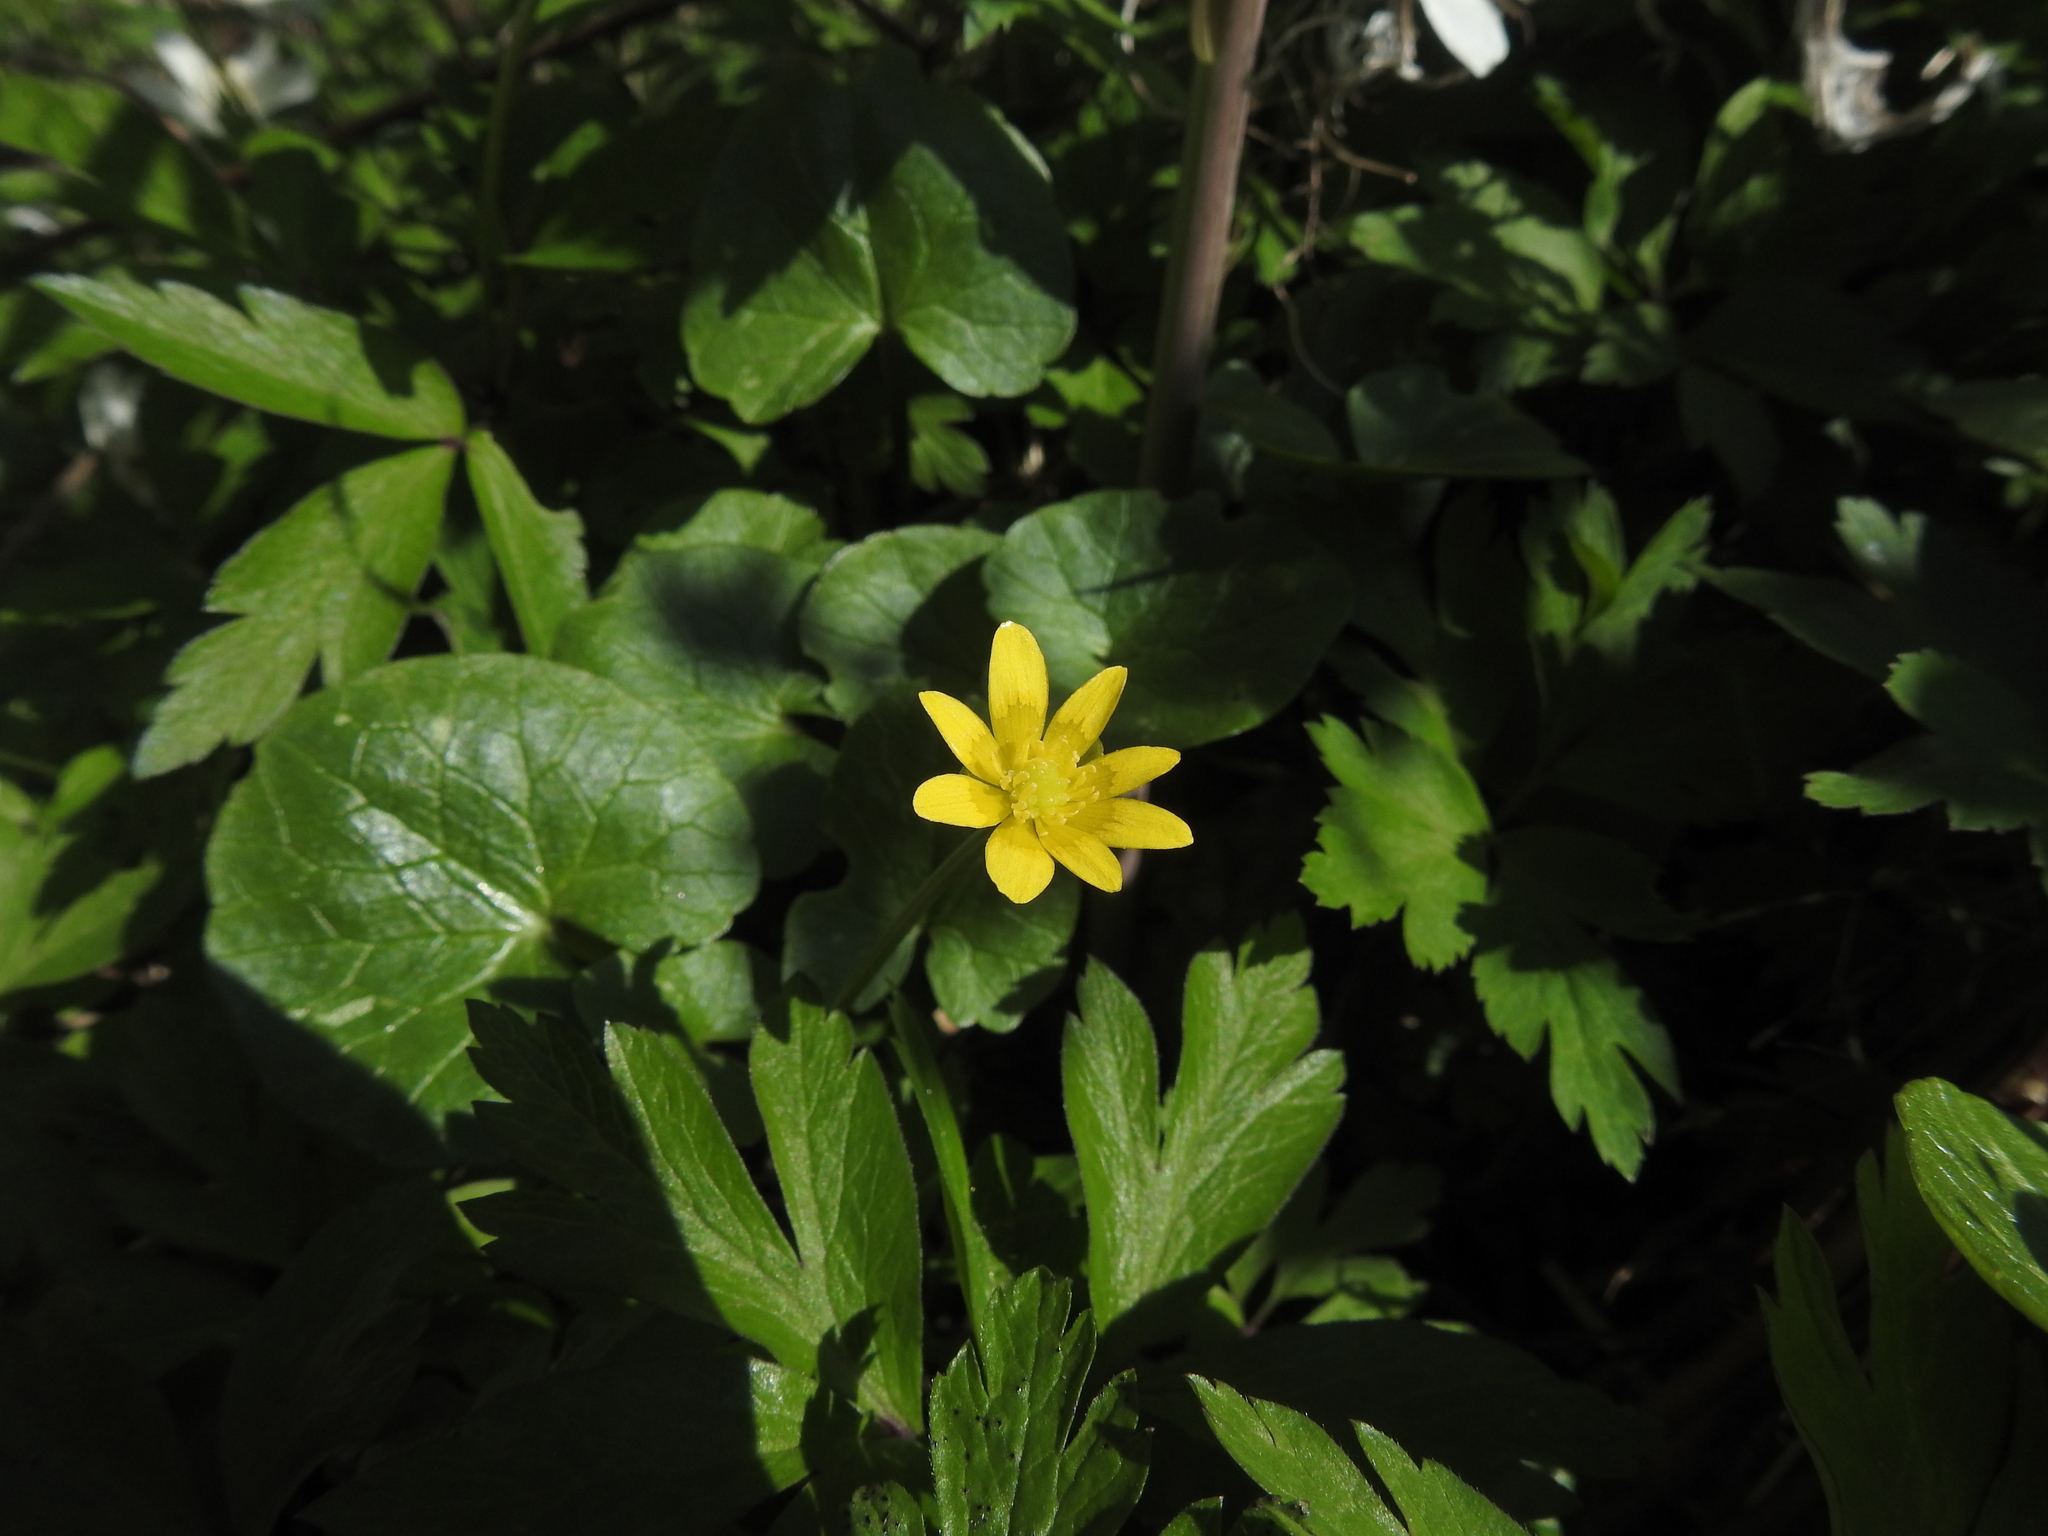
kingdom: Plantae
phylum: Tracheophyta
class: Magnoliopsida
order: Ranunculales
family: Ranunculaceae
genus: Ficaria
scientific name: Ficaria verna
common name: Lesser celandine
